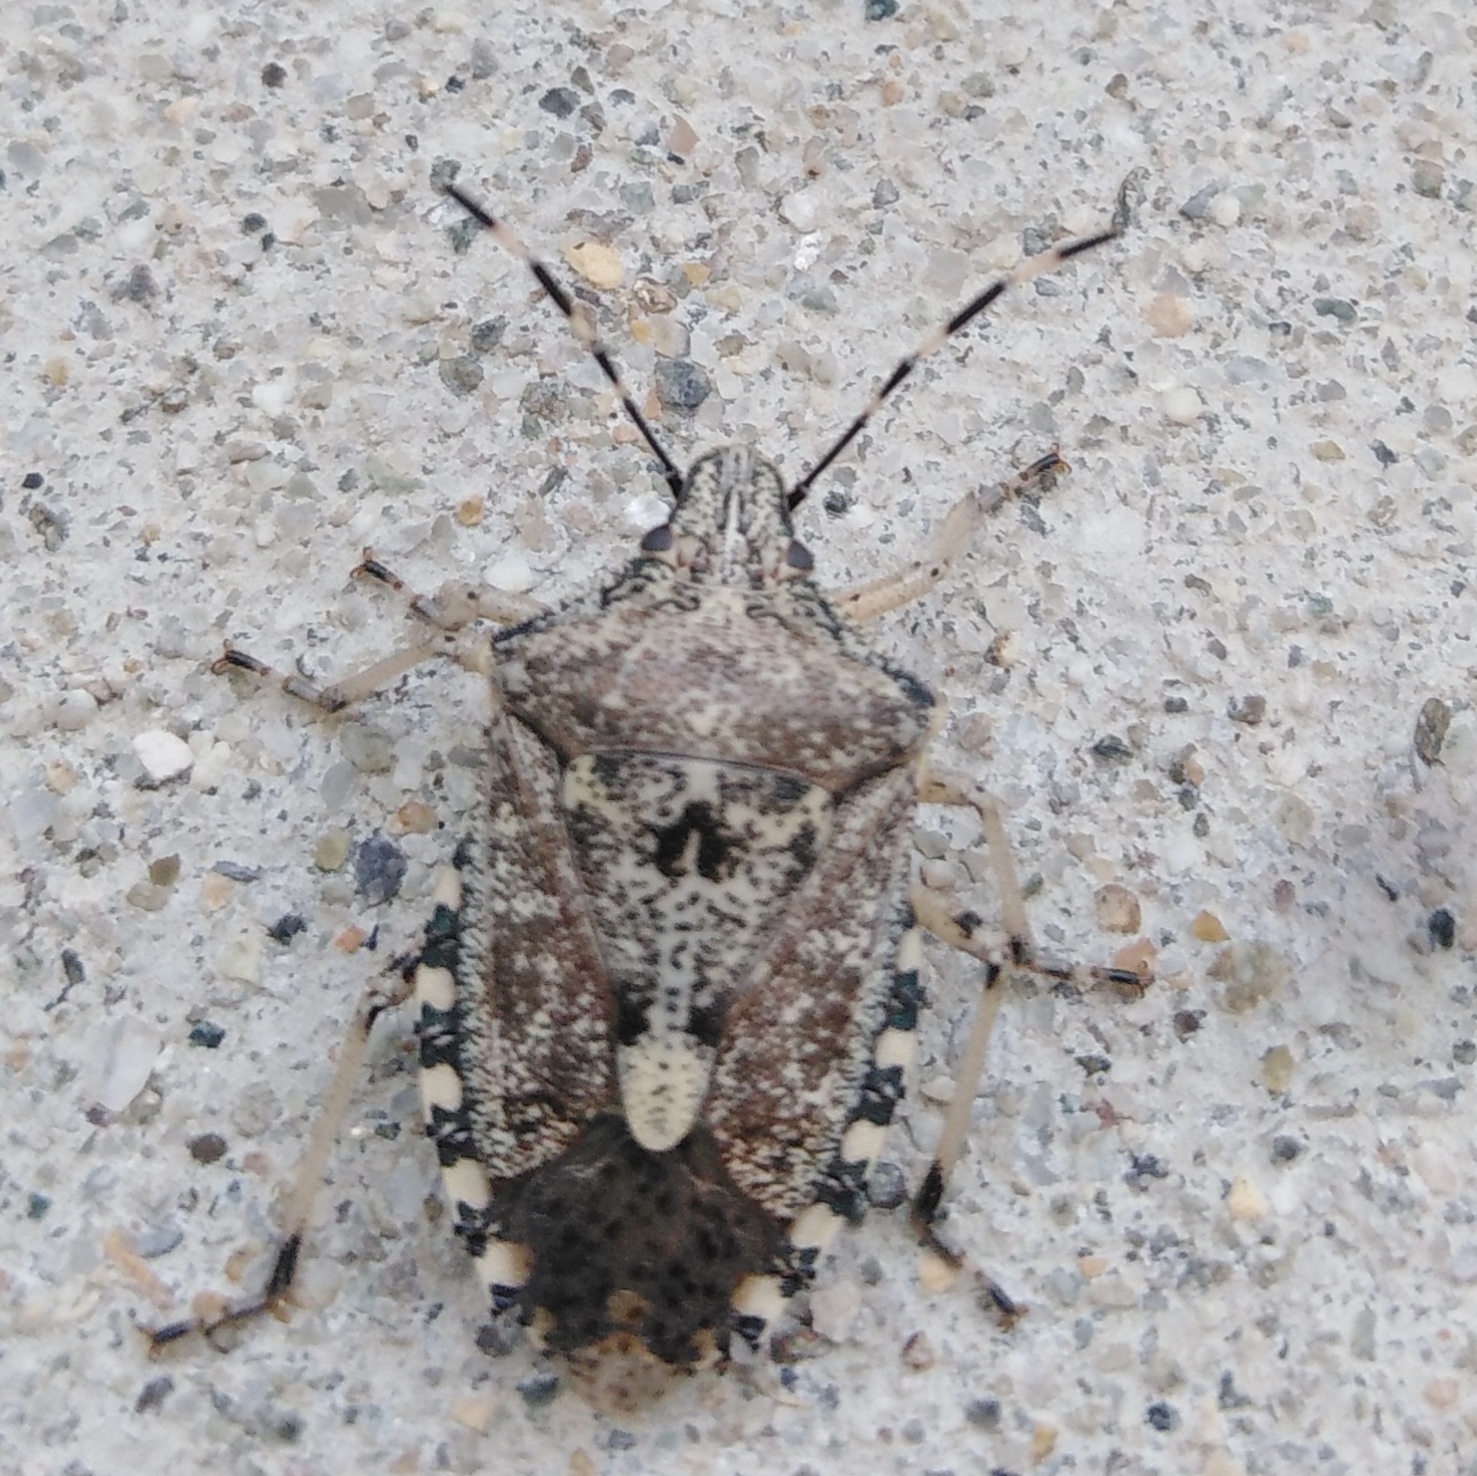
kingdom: Animalia
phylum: Arthropoda
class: Insecta
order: Hemiptera
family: Pentatomidae
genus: Rhaphigaster
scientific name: Rhaphigaster nebulosa
